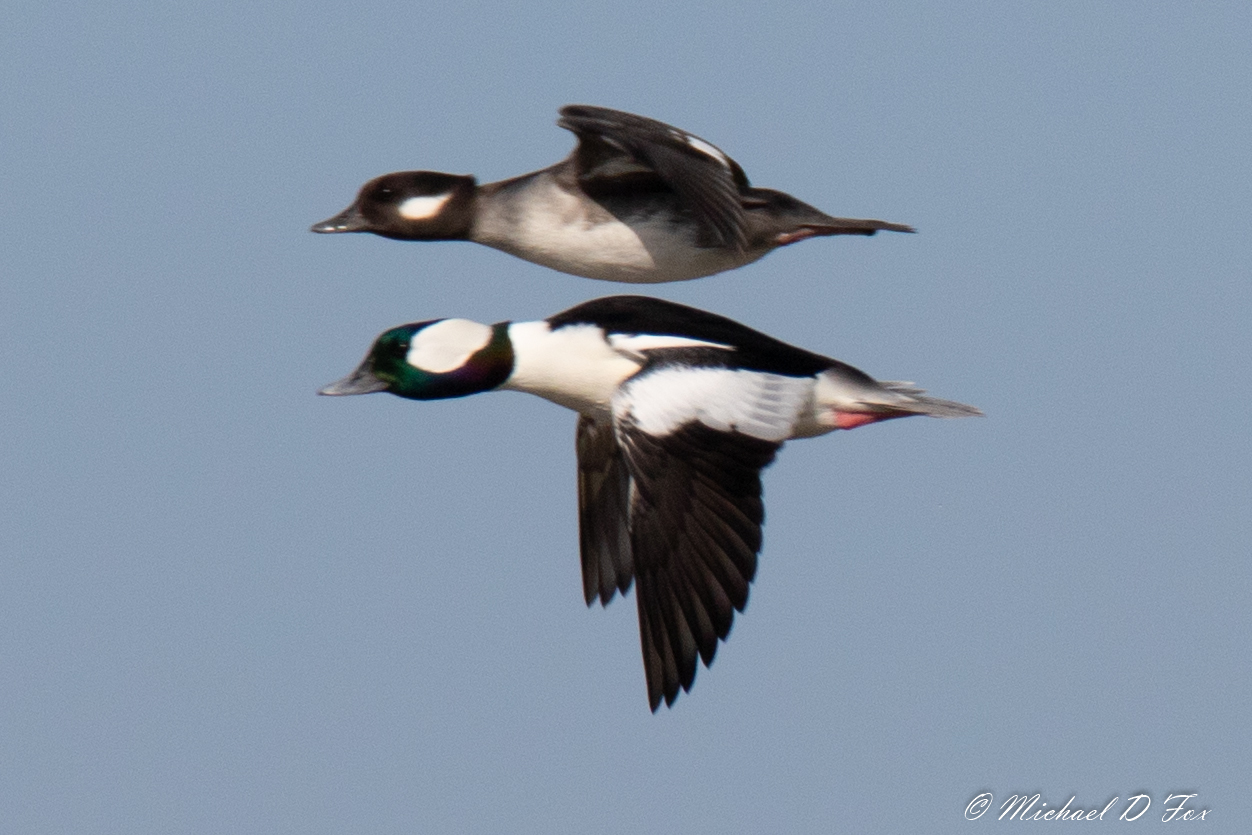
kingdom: Animalia
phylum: Chordata
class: Aves
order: Anseriformes
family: Anatidae
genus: Bucephala
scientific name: Bucephala albeola
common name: Bufflehead
